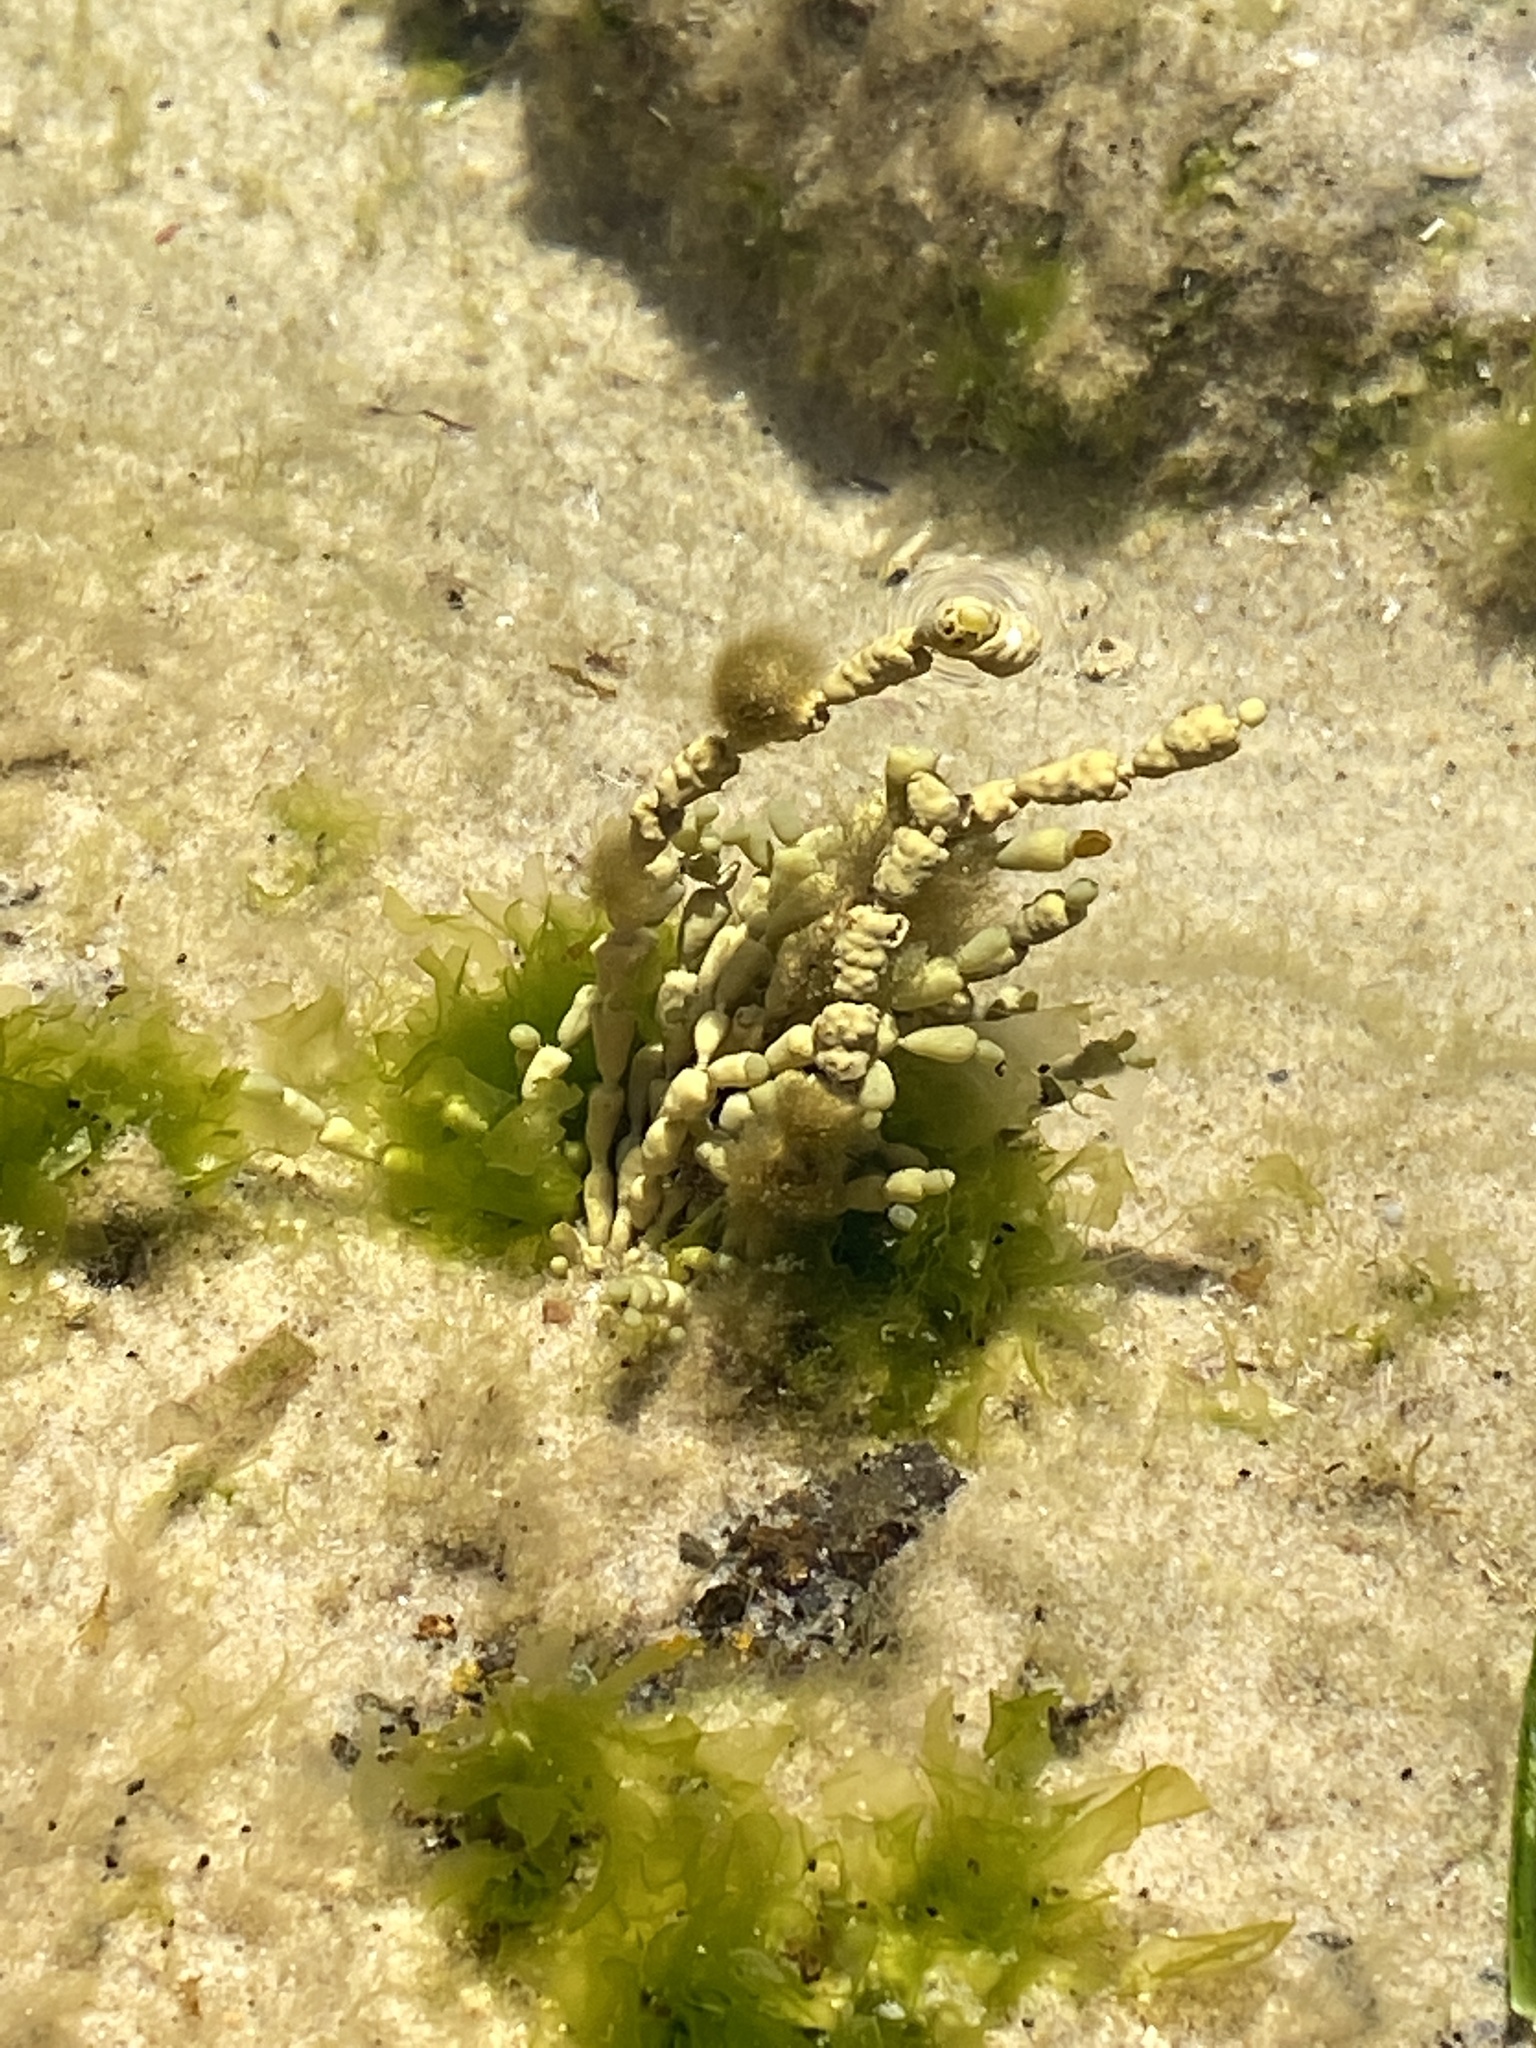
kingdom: Chromista
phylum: Ochrophyta
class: Phaeophyceae
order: Fucales
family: Hormosiraceae
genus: Hormosira
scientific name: Hormosira banksii
